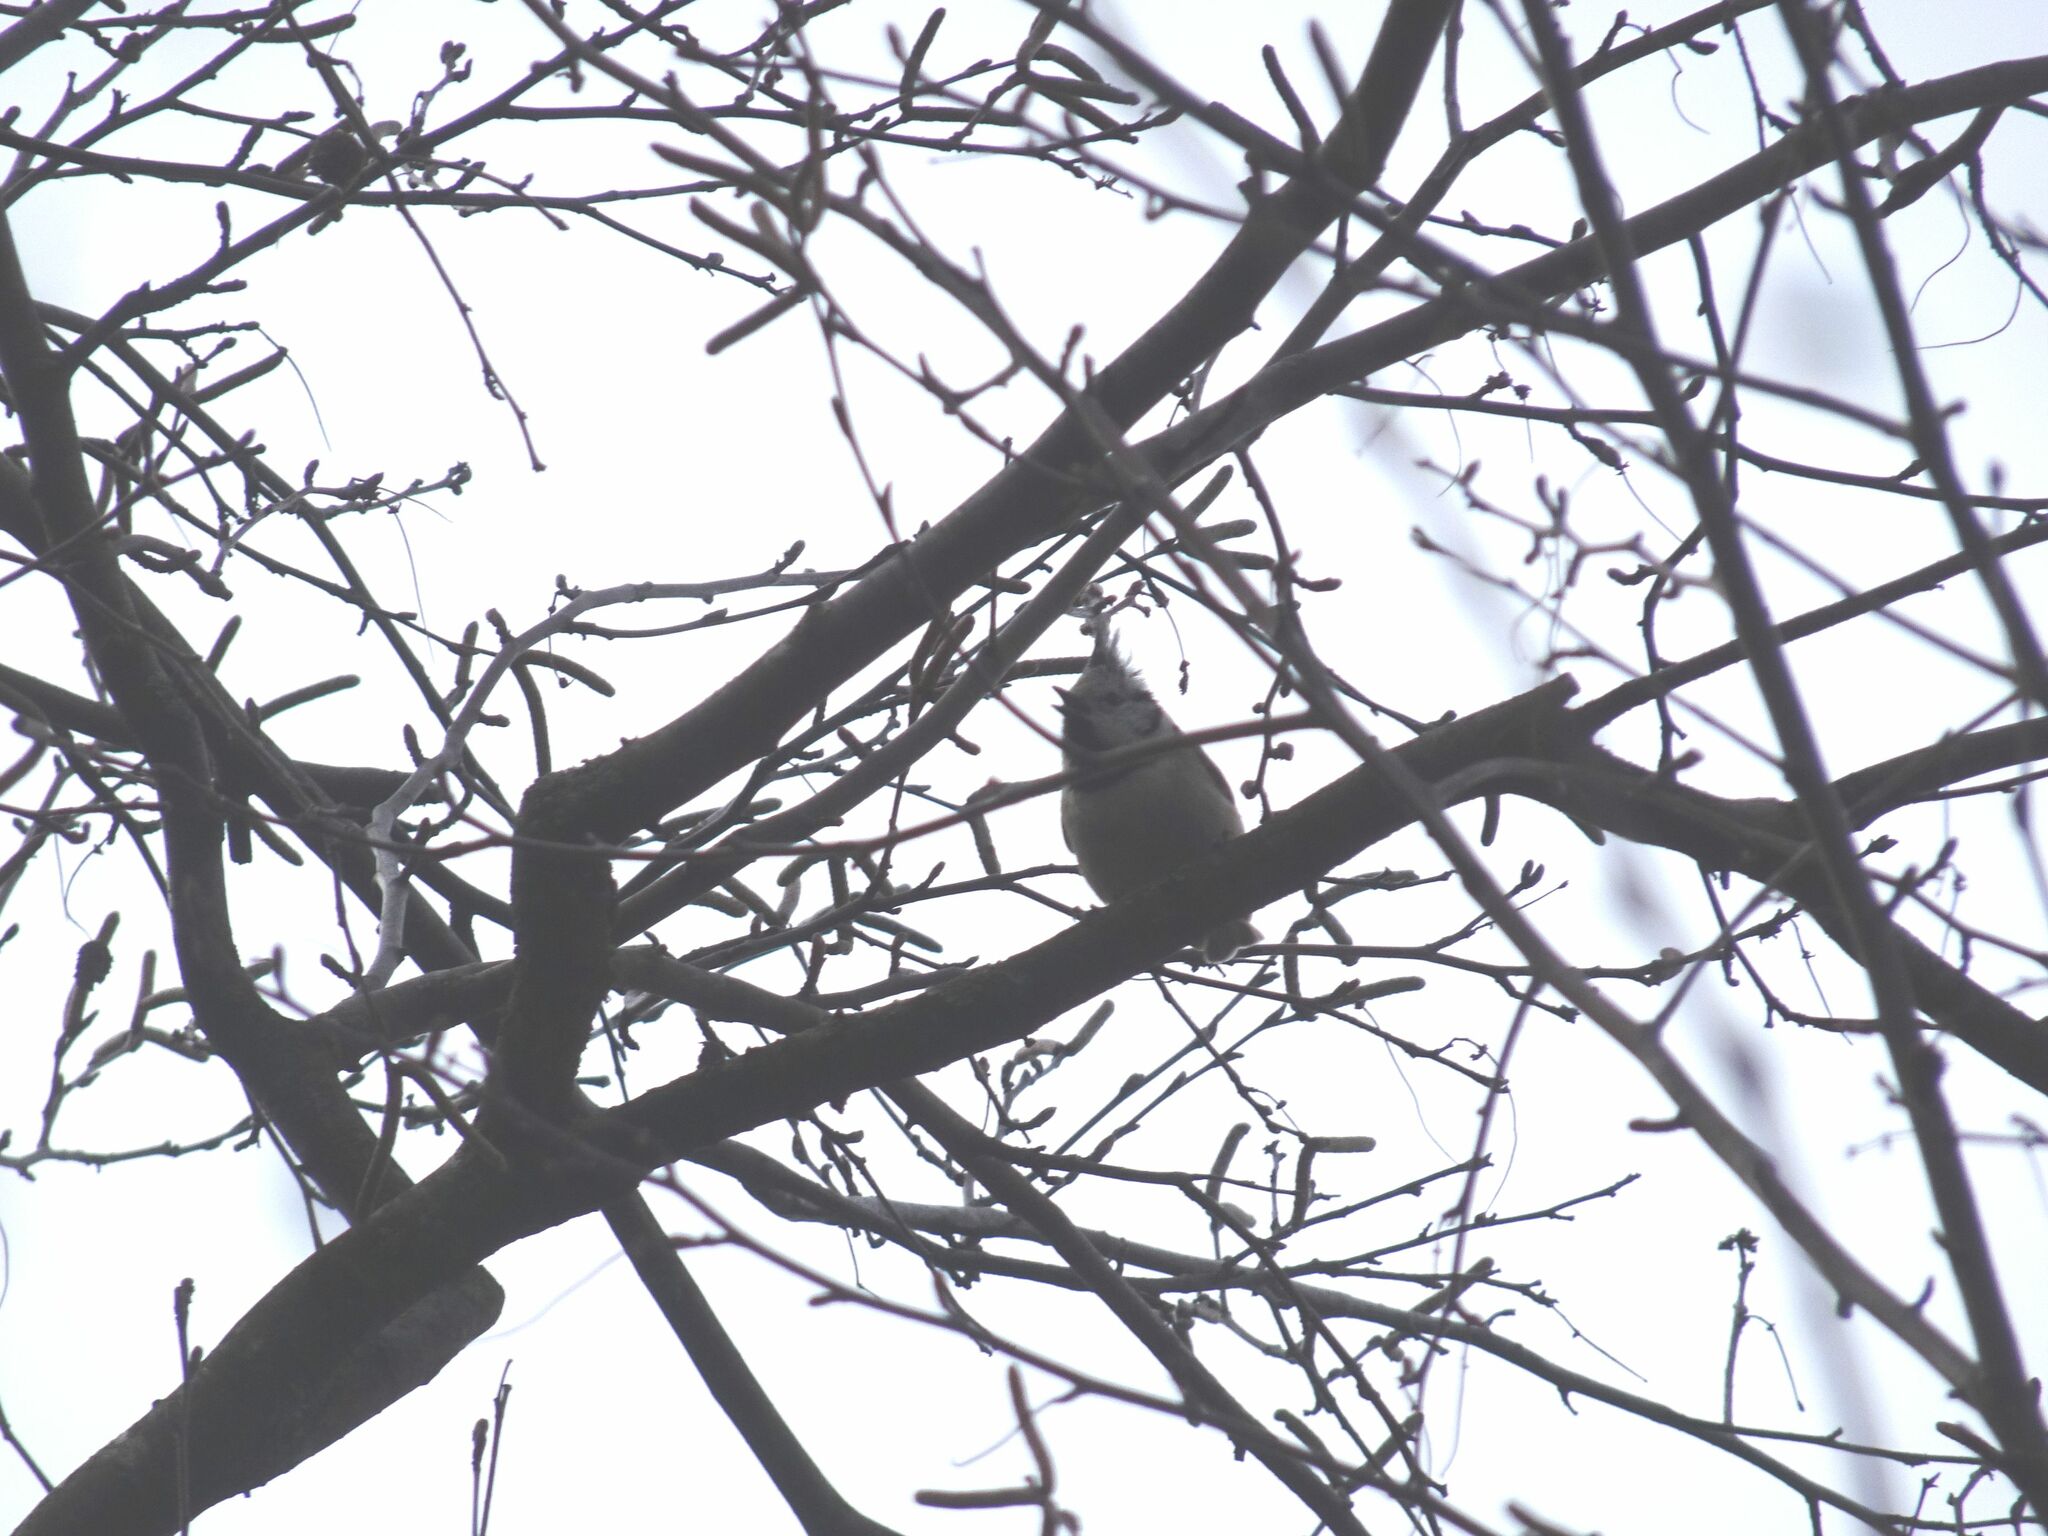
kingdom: Animalia
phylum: Chordata
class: Aves
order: Passeriformes
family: Paridae
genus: Lophophanes
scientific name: Lophophanes cristatus
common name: European crested tit
